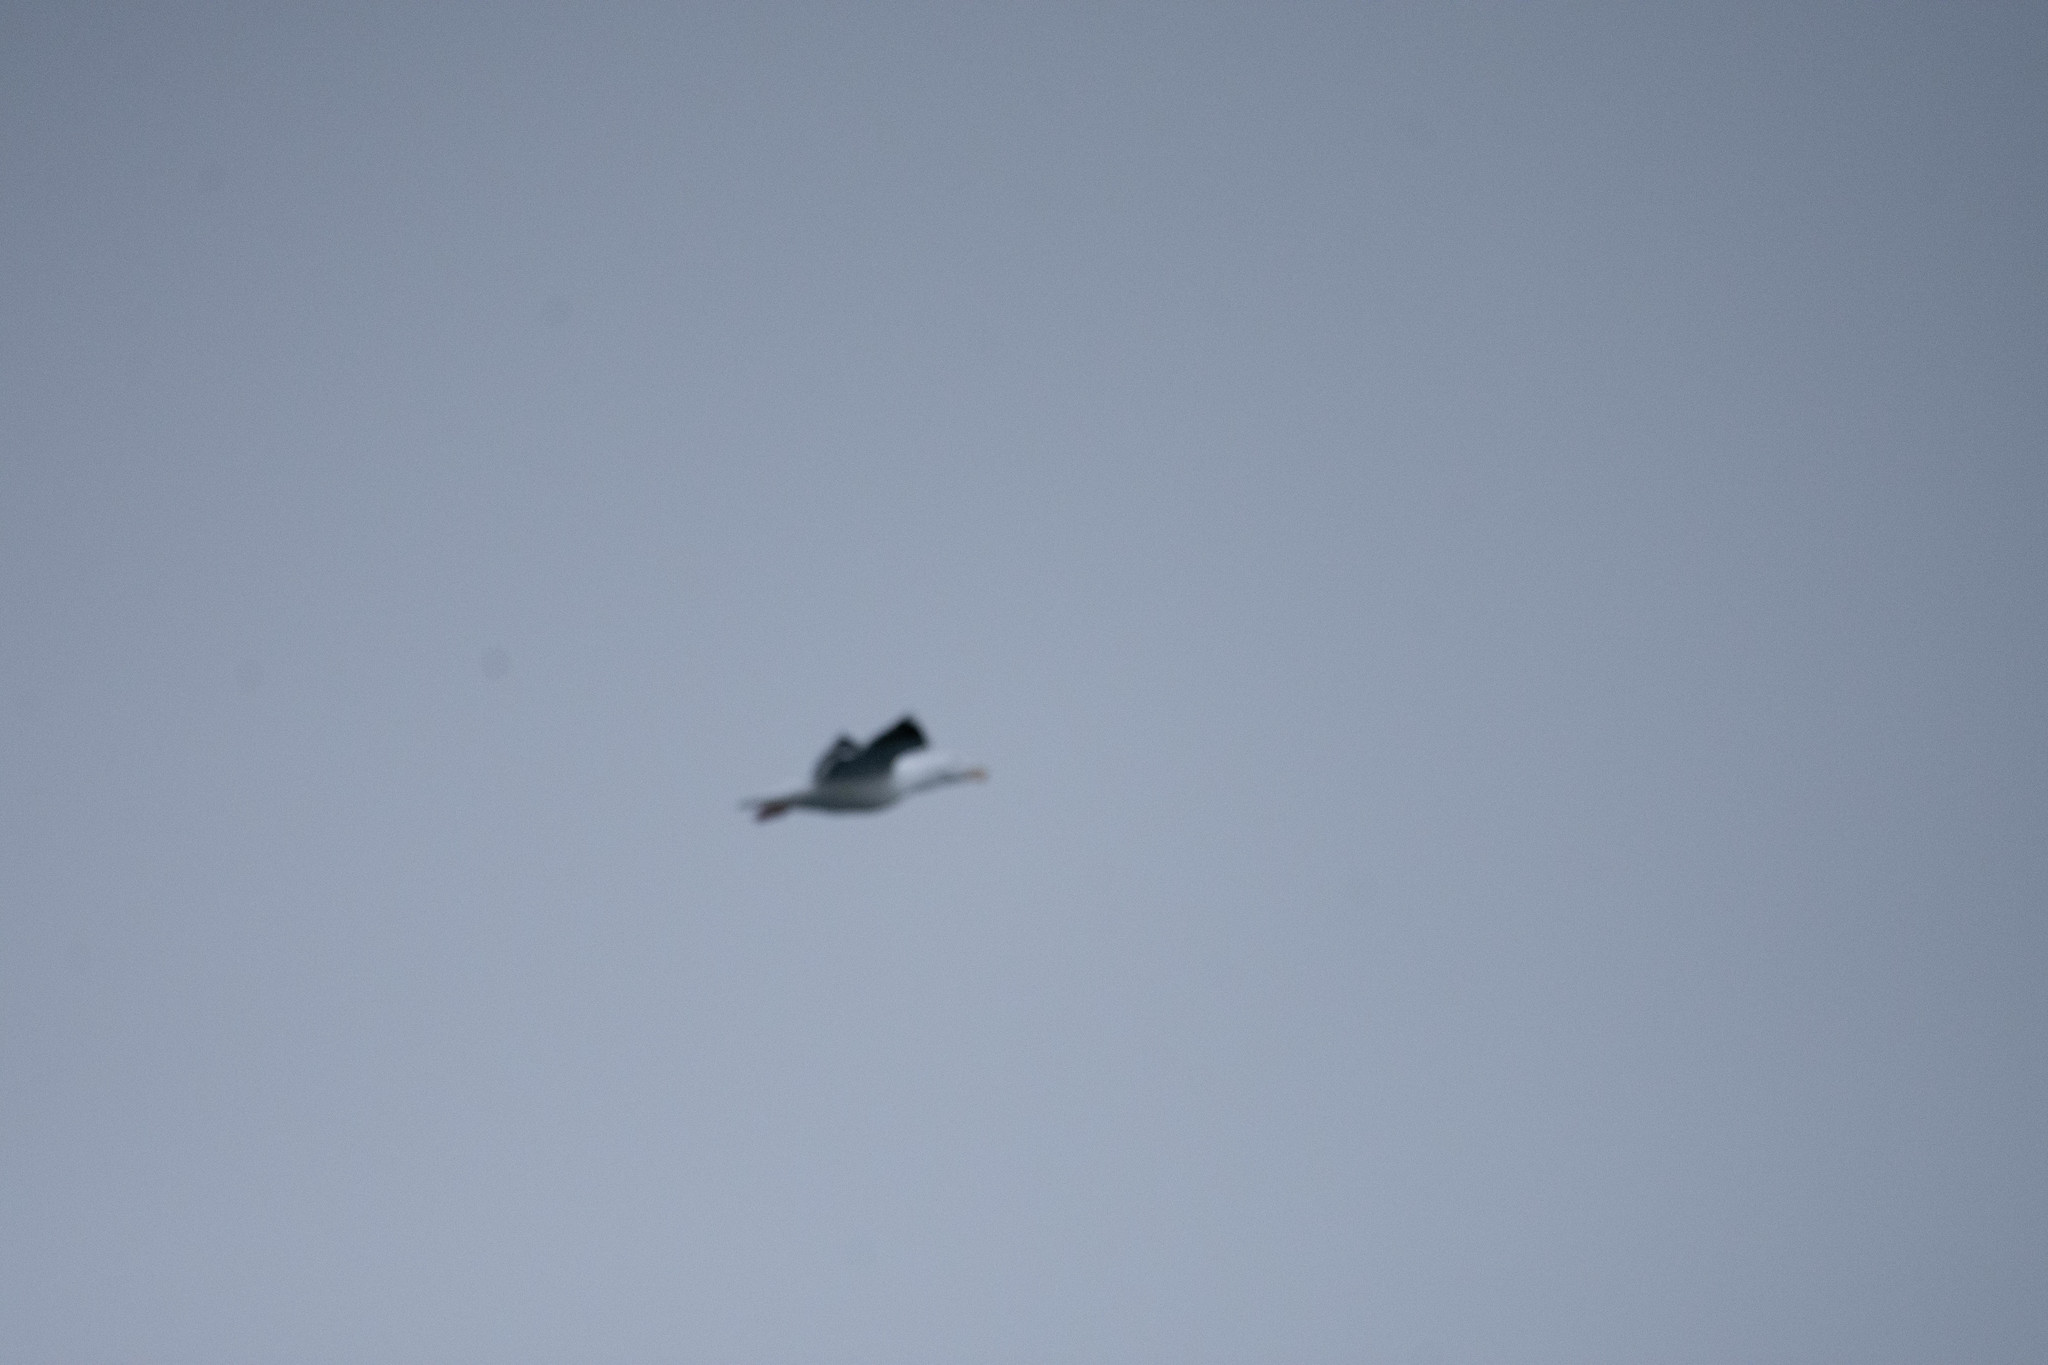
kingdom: Animalia
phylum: Chordata
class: Aves
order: Charadriiformes
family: Laridae
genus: Larus
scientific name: Larus marinus
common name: Great black-backed gull
